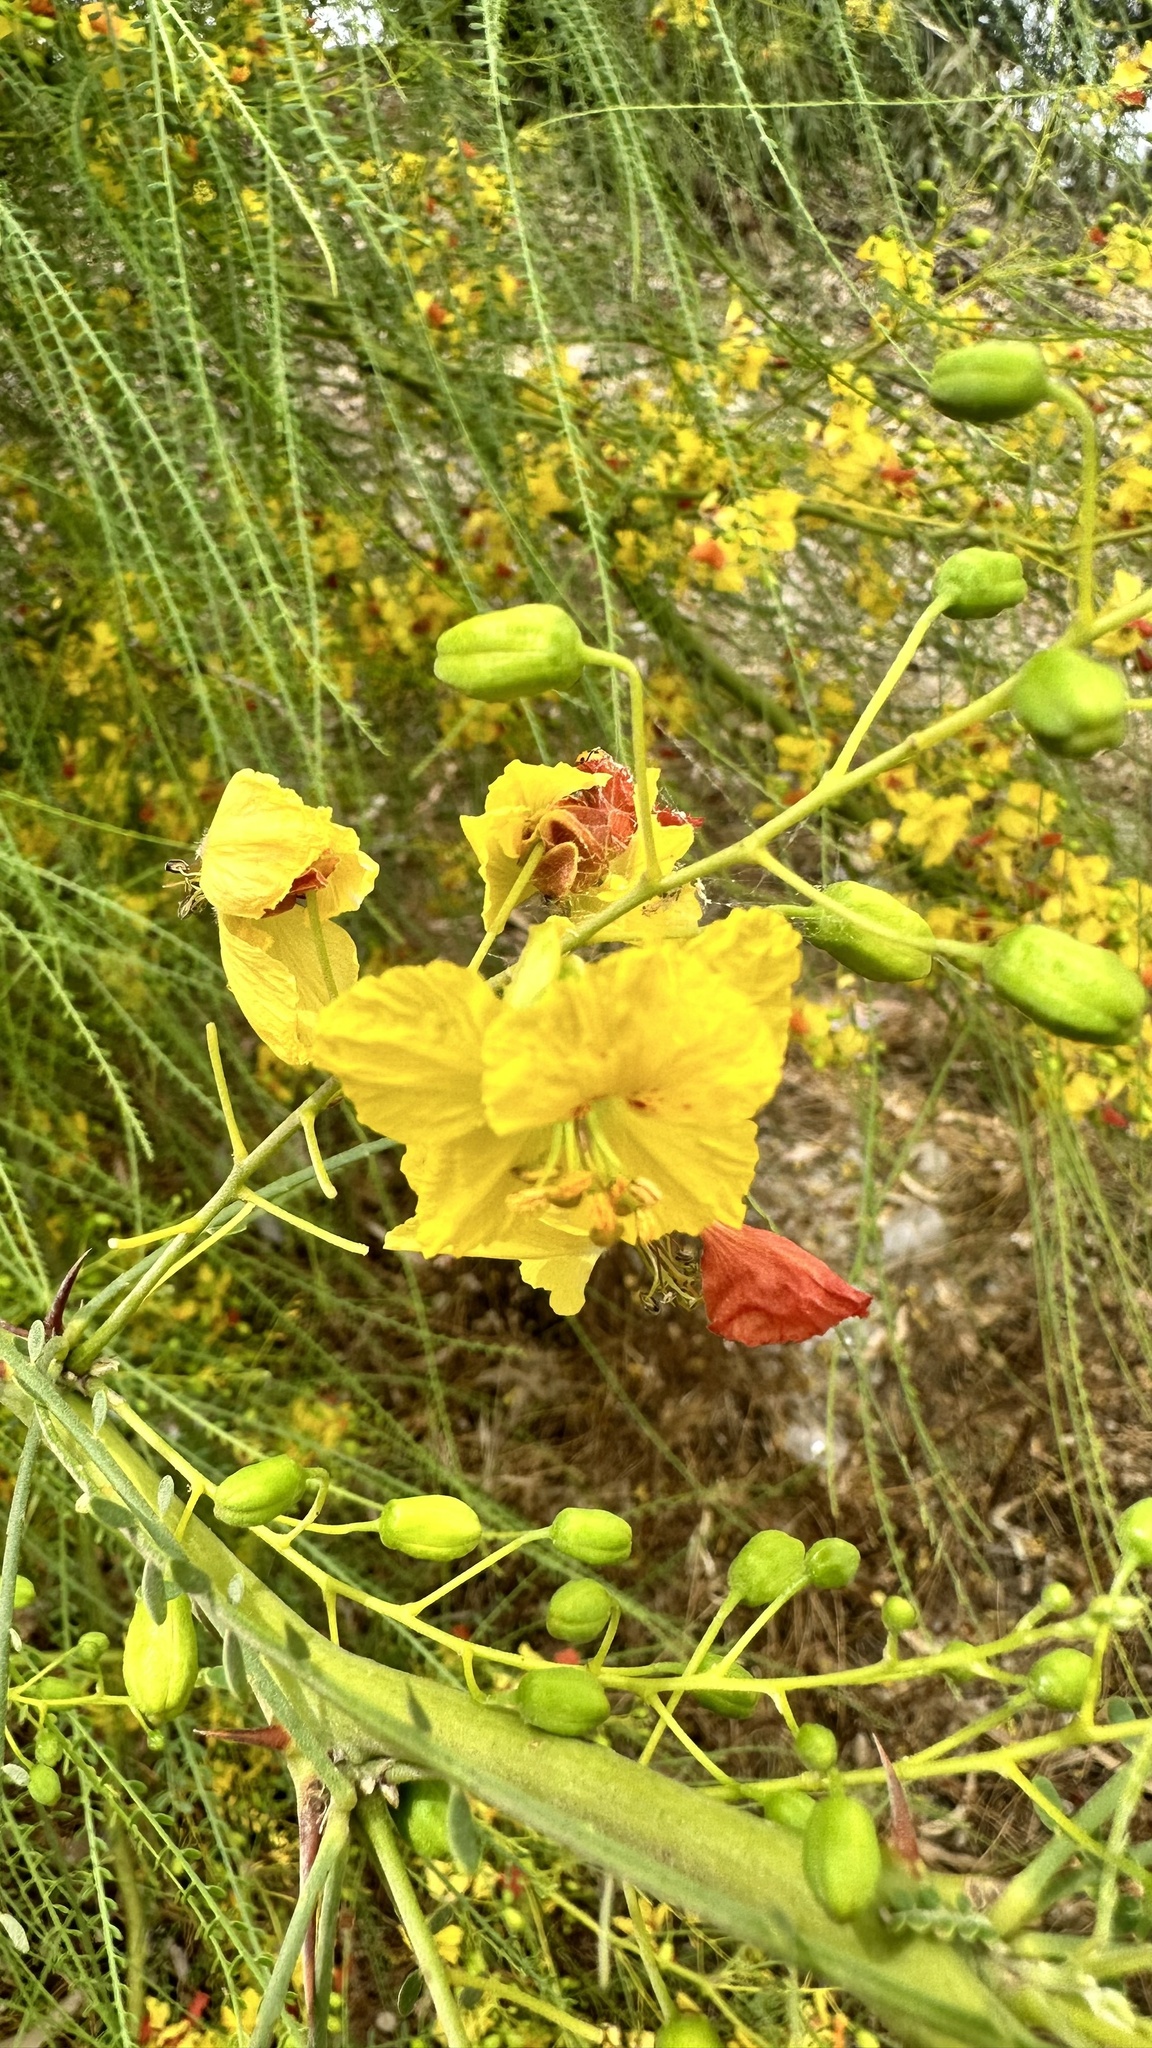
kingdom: Plantae
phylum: Tracheophyta
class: Magnoliopsida
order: Fabales
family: Fabaceae
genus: Parkinsonia
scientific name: Parkinsonia aculeata
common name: Jerusalem thorn
